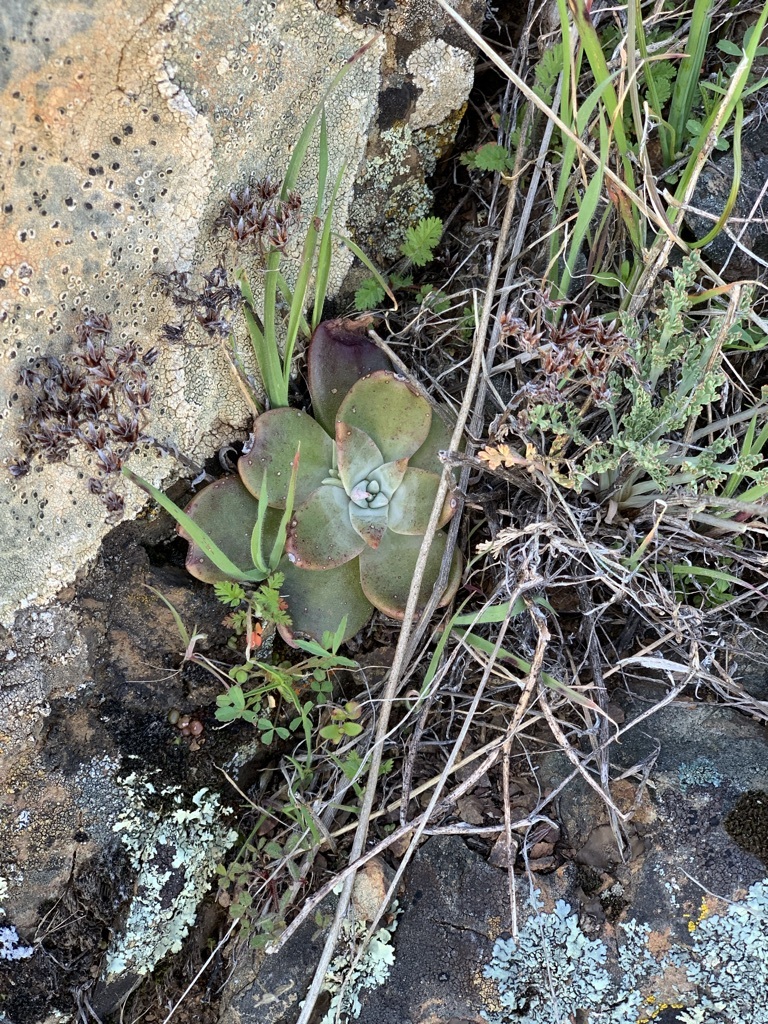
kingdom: Plantae
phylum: Tracheophyta
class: Magnoliopsida
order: Saxifragales
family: Crassulaceae
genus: Dudleya
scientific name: Dudleya cymosa
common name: Canyon dudleya
